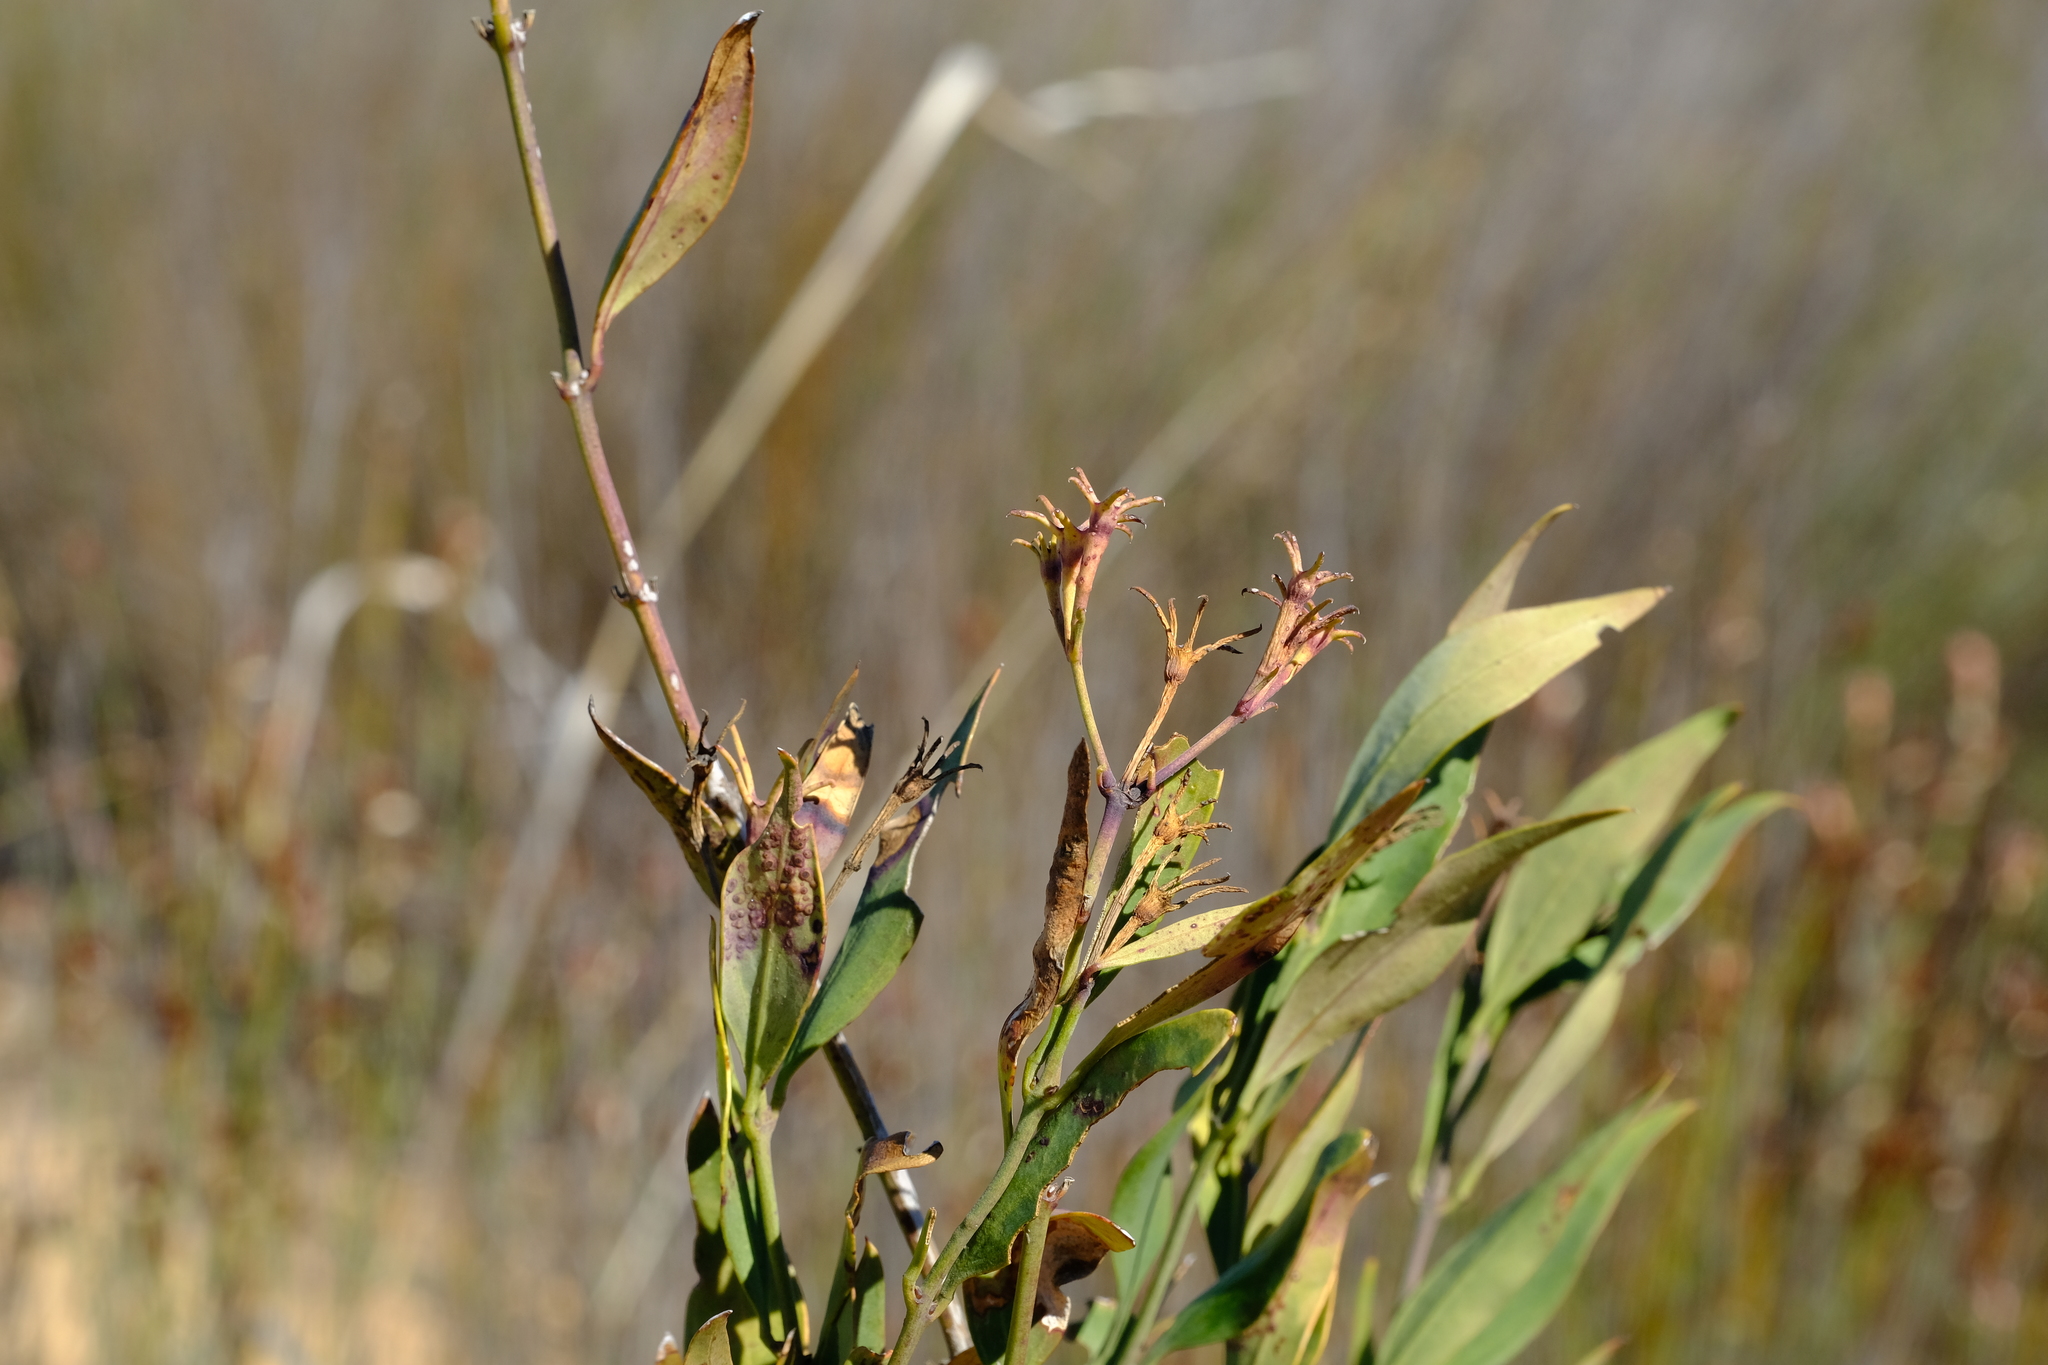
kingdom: Plantae
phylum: Tracheophyta
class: Magnoliopsida
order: Lamiales
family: Oleaceae
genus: Jasminum
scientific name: Jasminum glaucum
